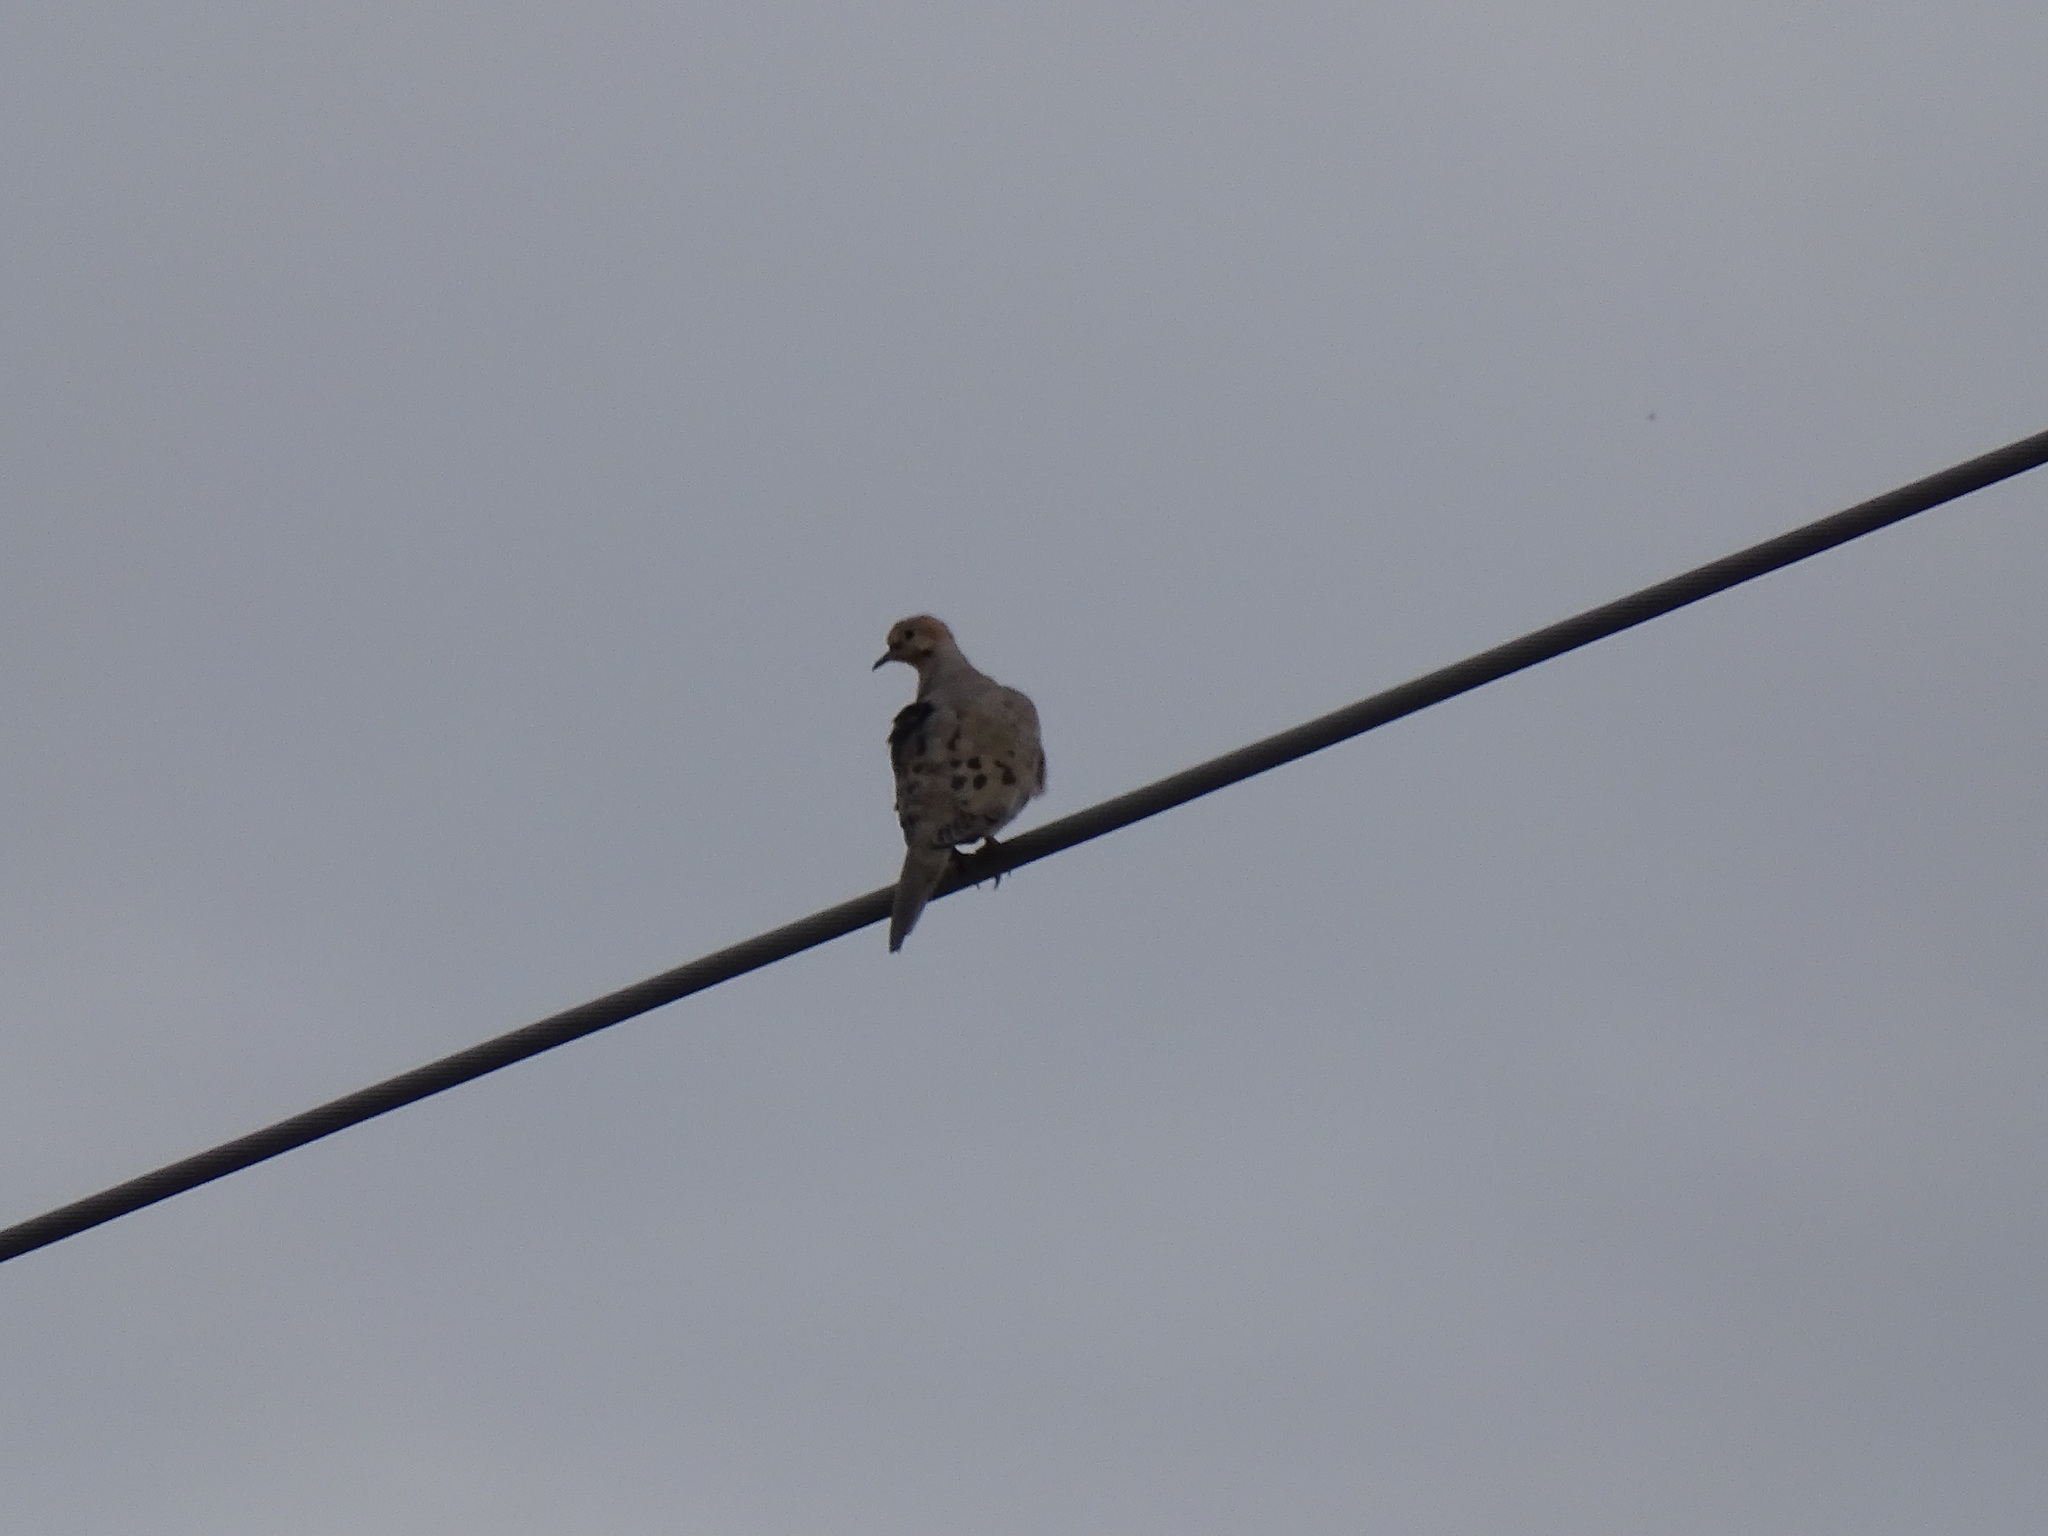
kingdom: Animalia
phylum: Chordata
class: Aves
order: Columbiformes
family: Columbidae
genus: Zenaida
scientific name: Zenaida macroura
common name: Mourning dove
